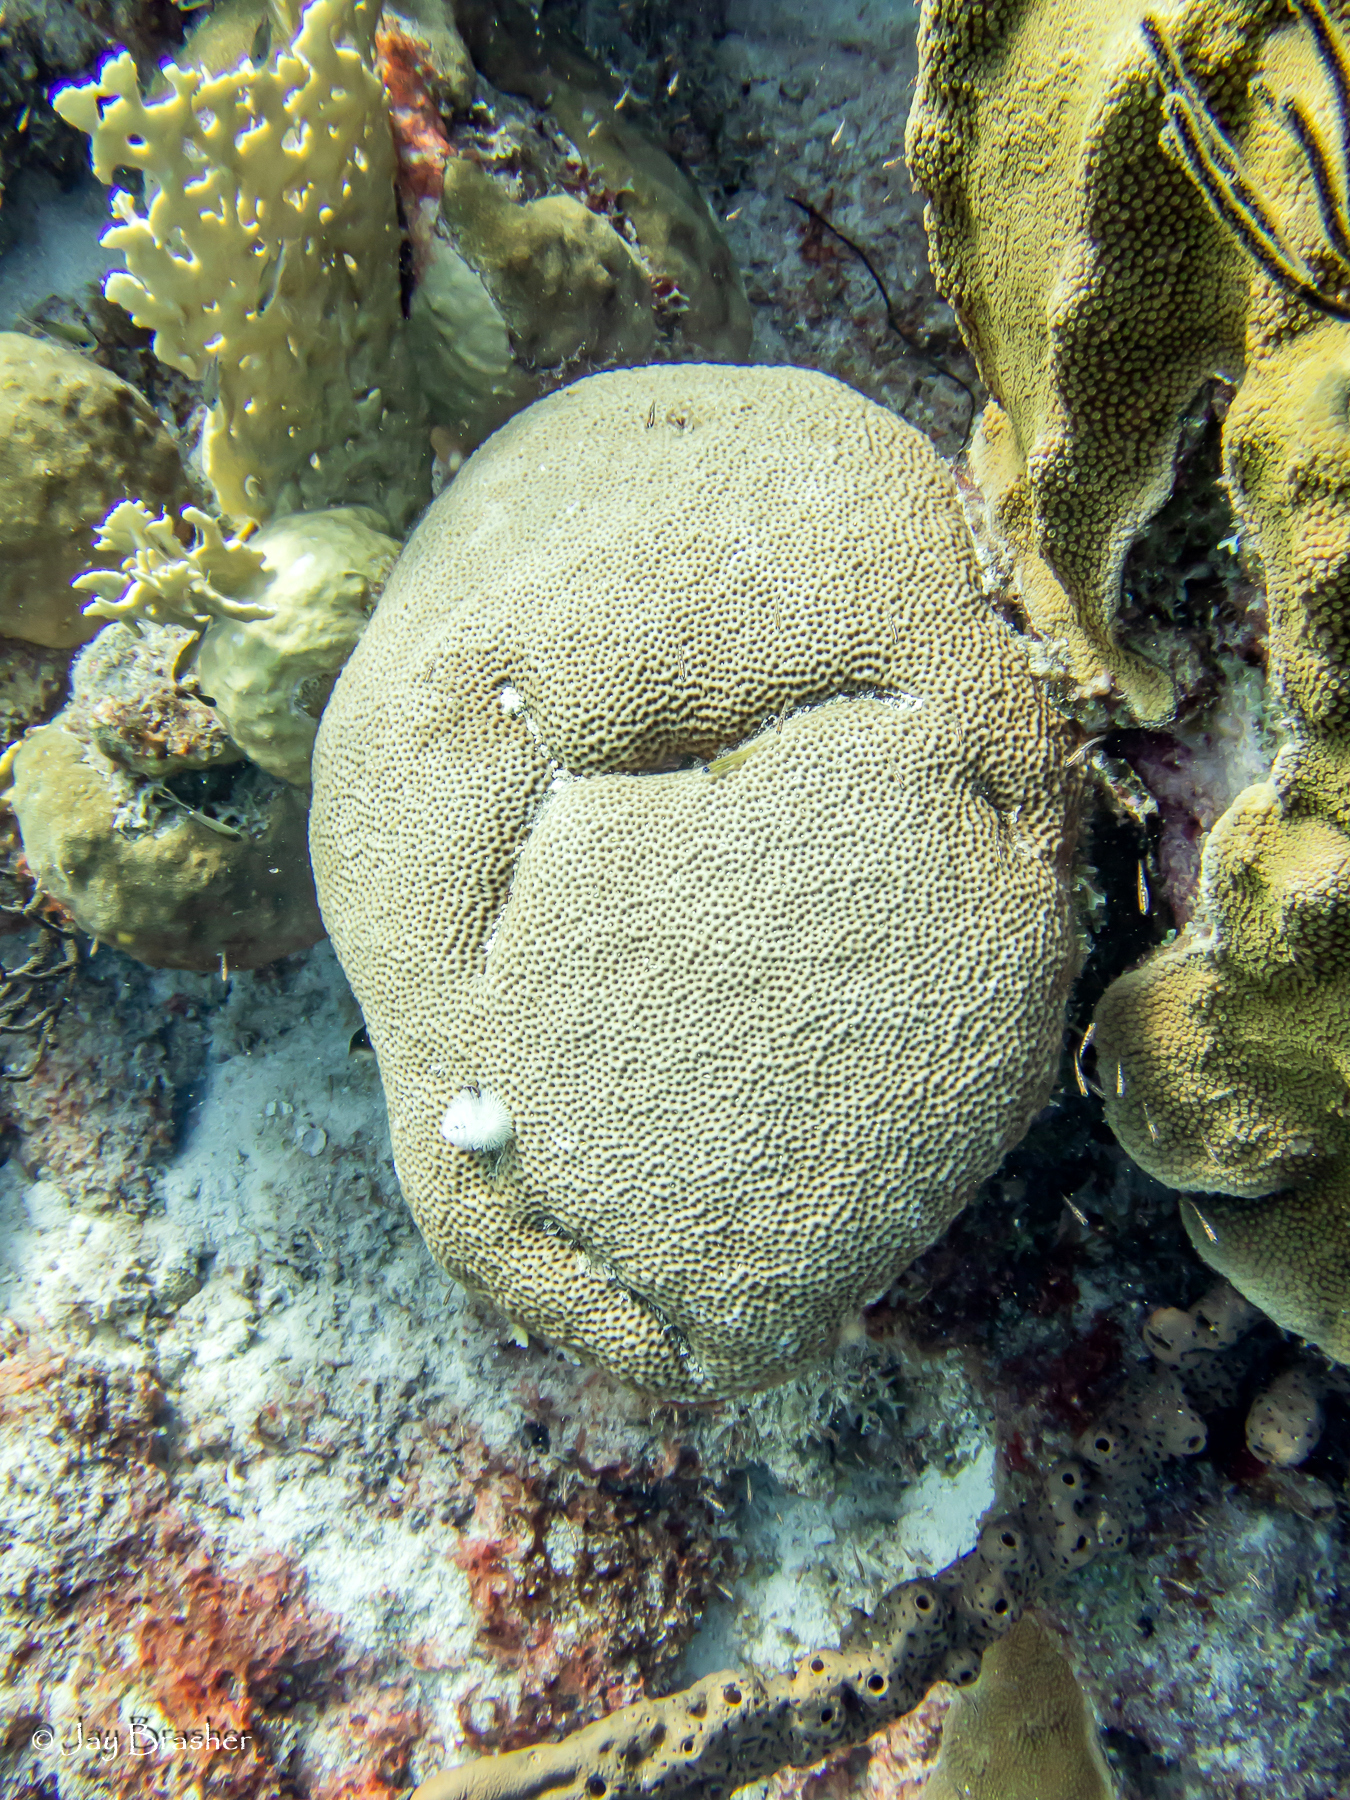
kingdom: Animalia
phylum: Cnidaria
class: Anthozoa
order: Scleractinia
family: Merulinidae
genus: Orbicella
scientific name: Orbicella faveolata
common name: Mountainous star coral
